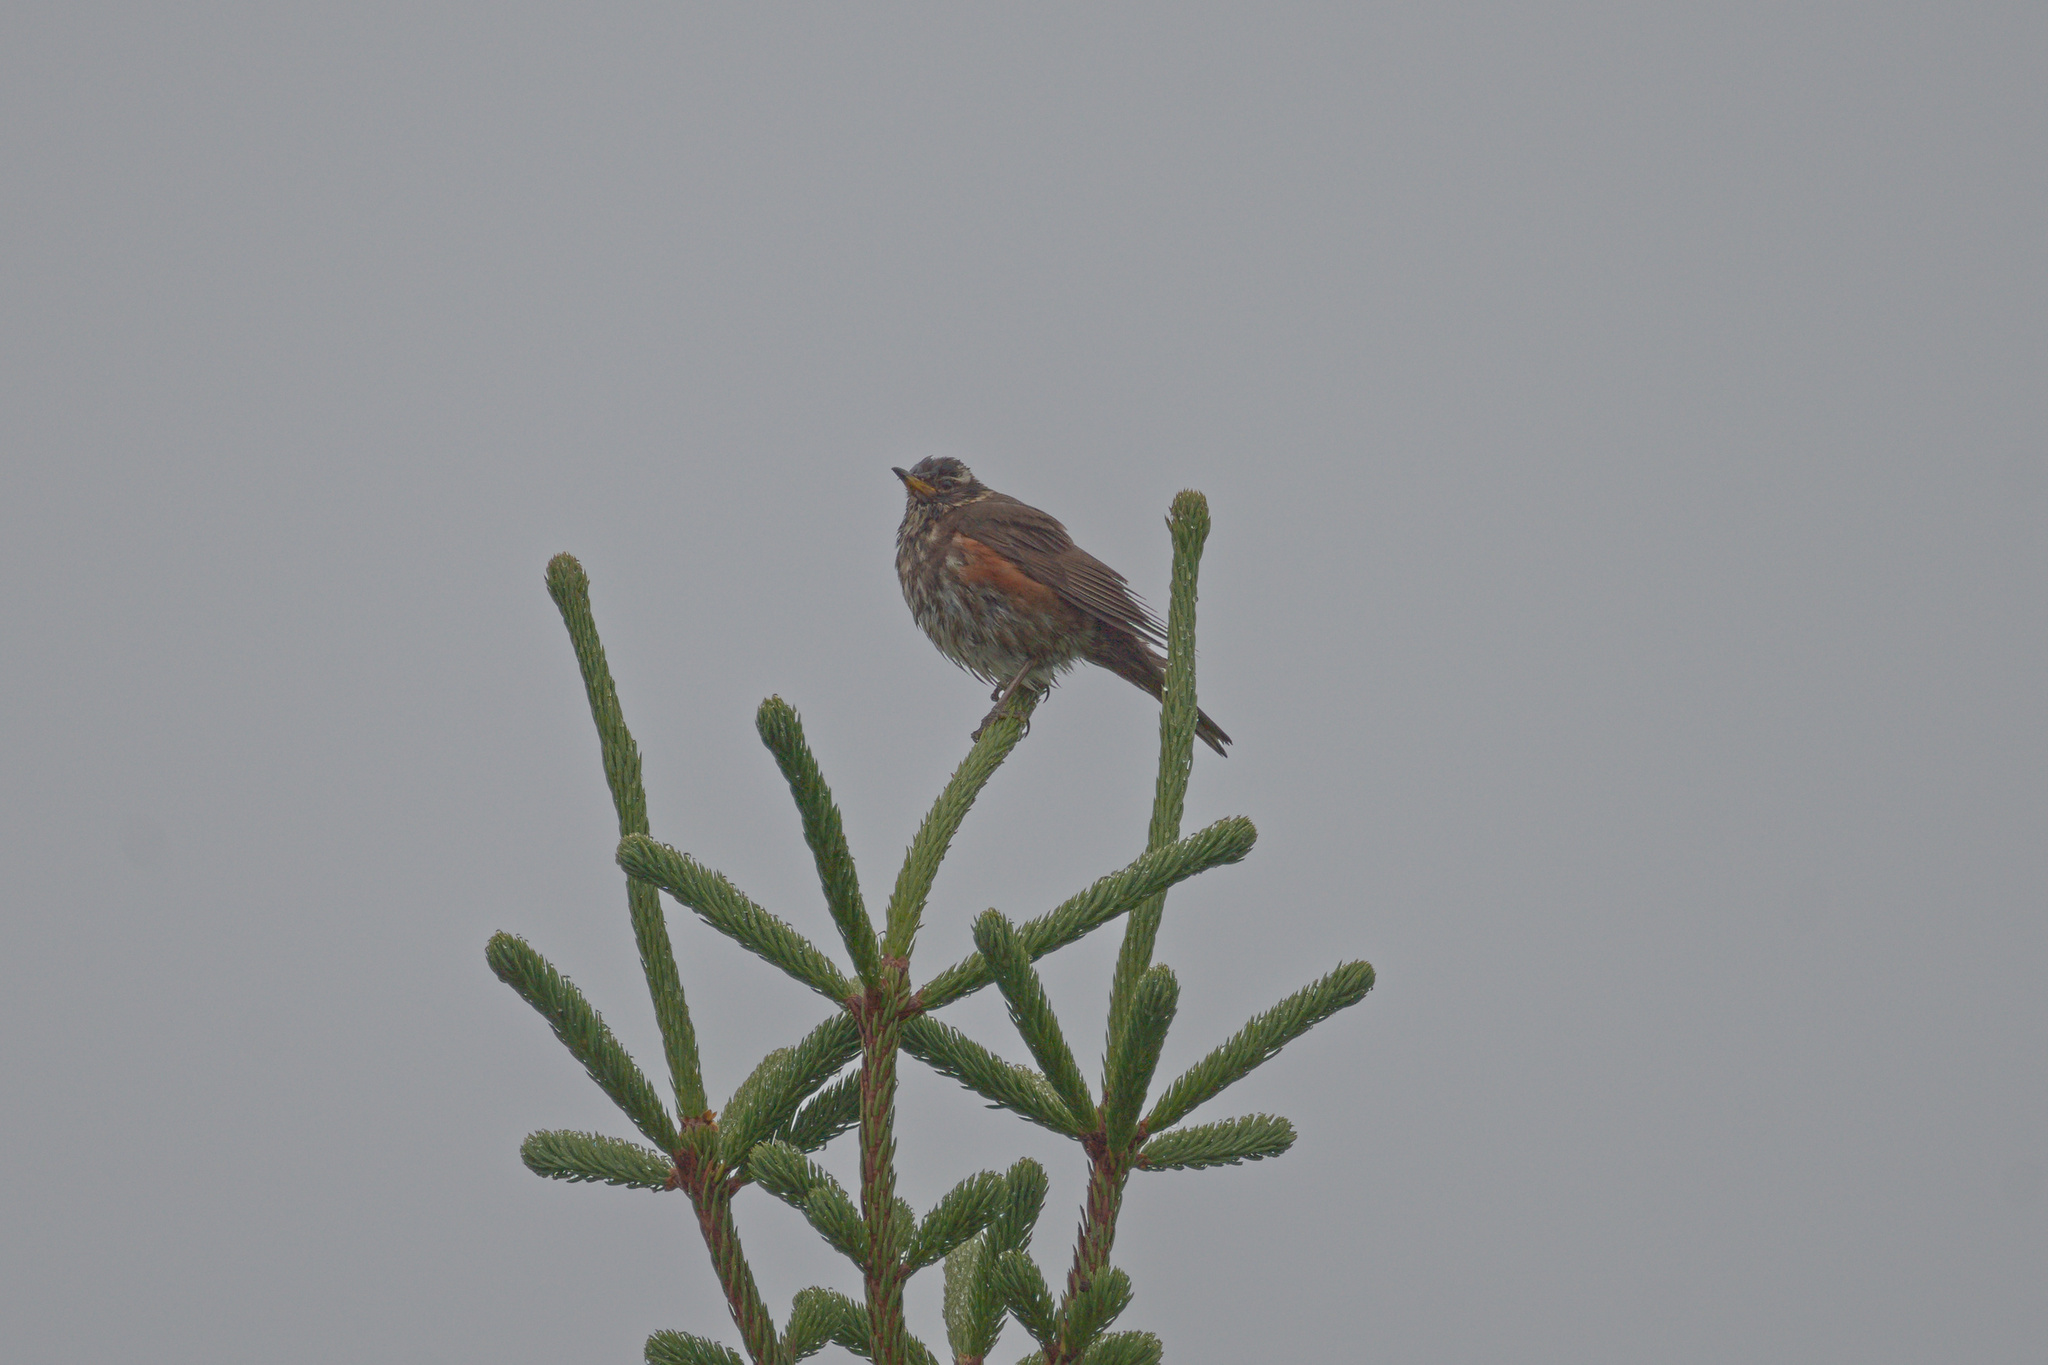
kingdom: Animalia
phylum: Chordata
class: Aves
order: Passeriformes
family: Turdidae
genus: Turdus
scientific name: Turdus iliacus
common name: Redwing
